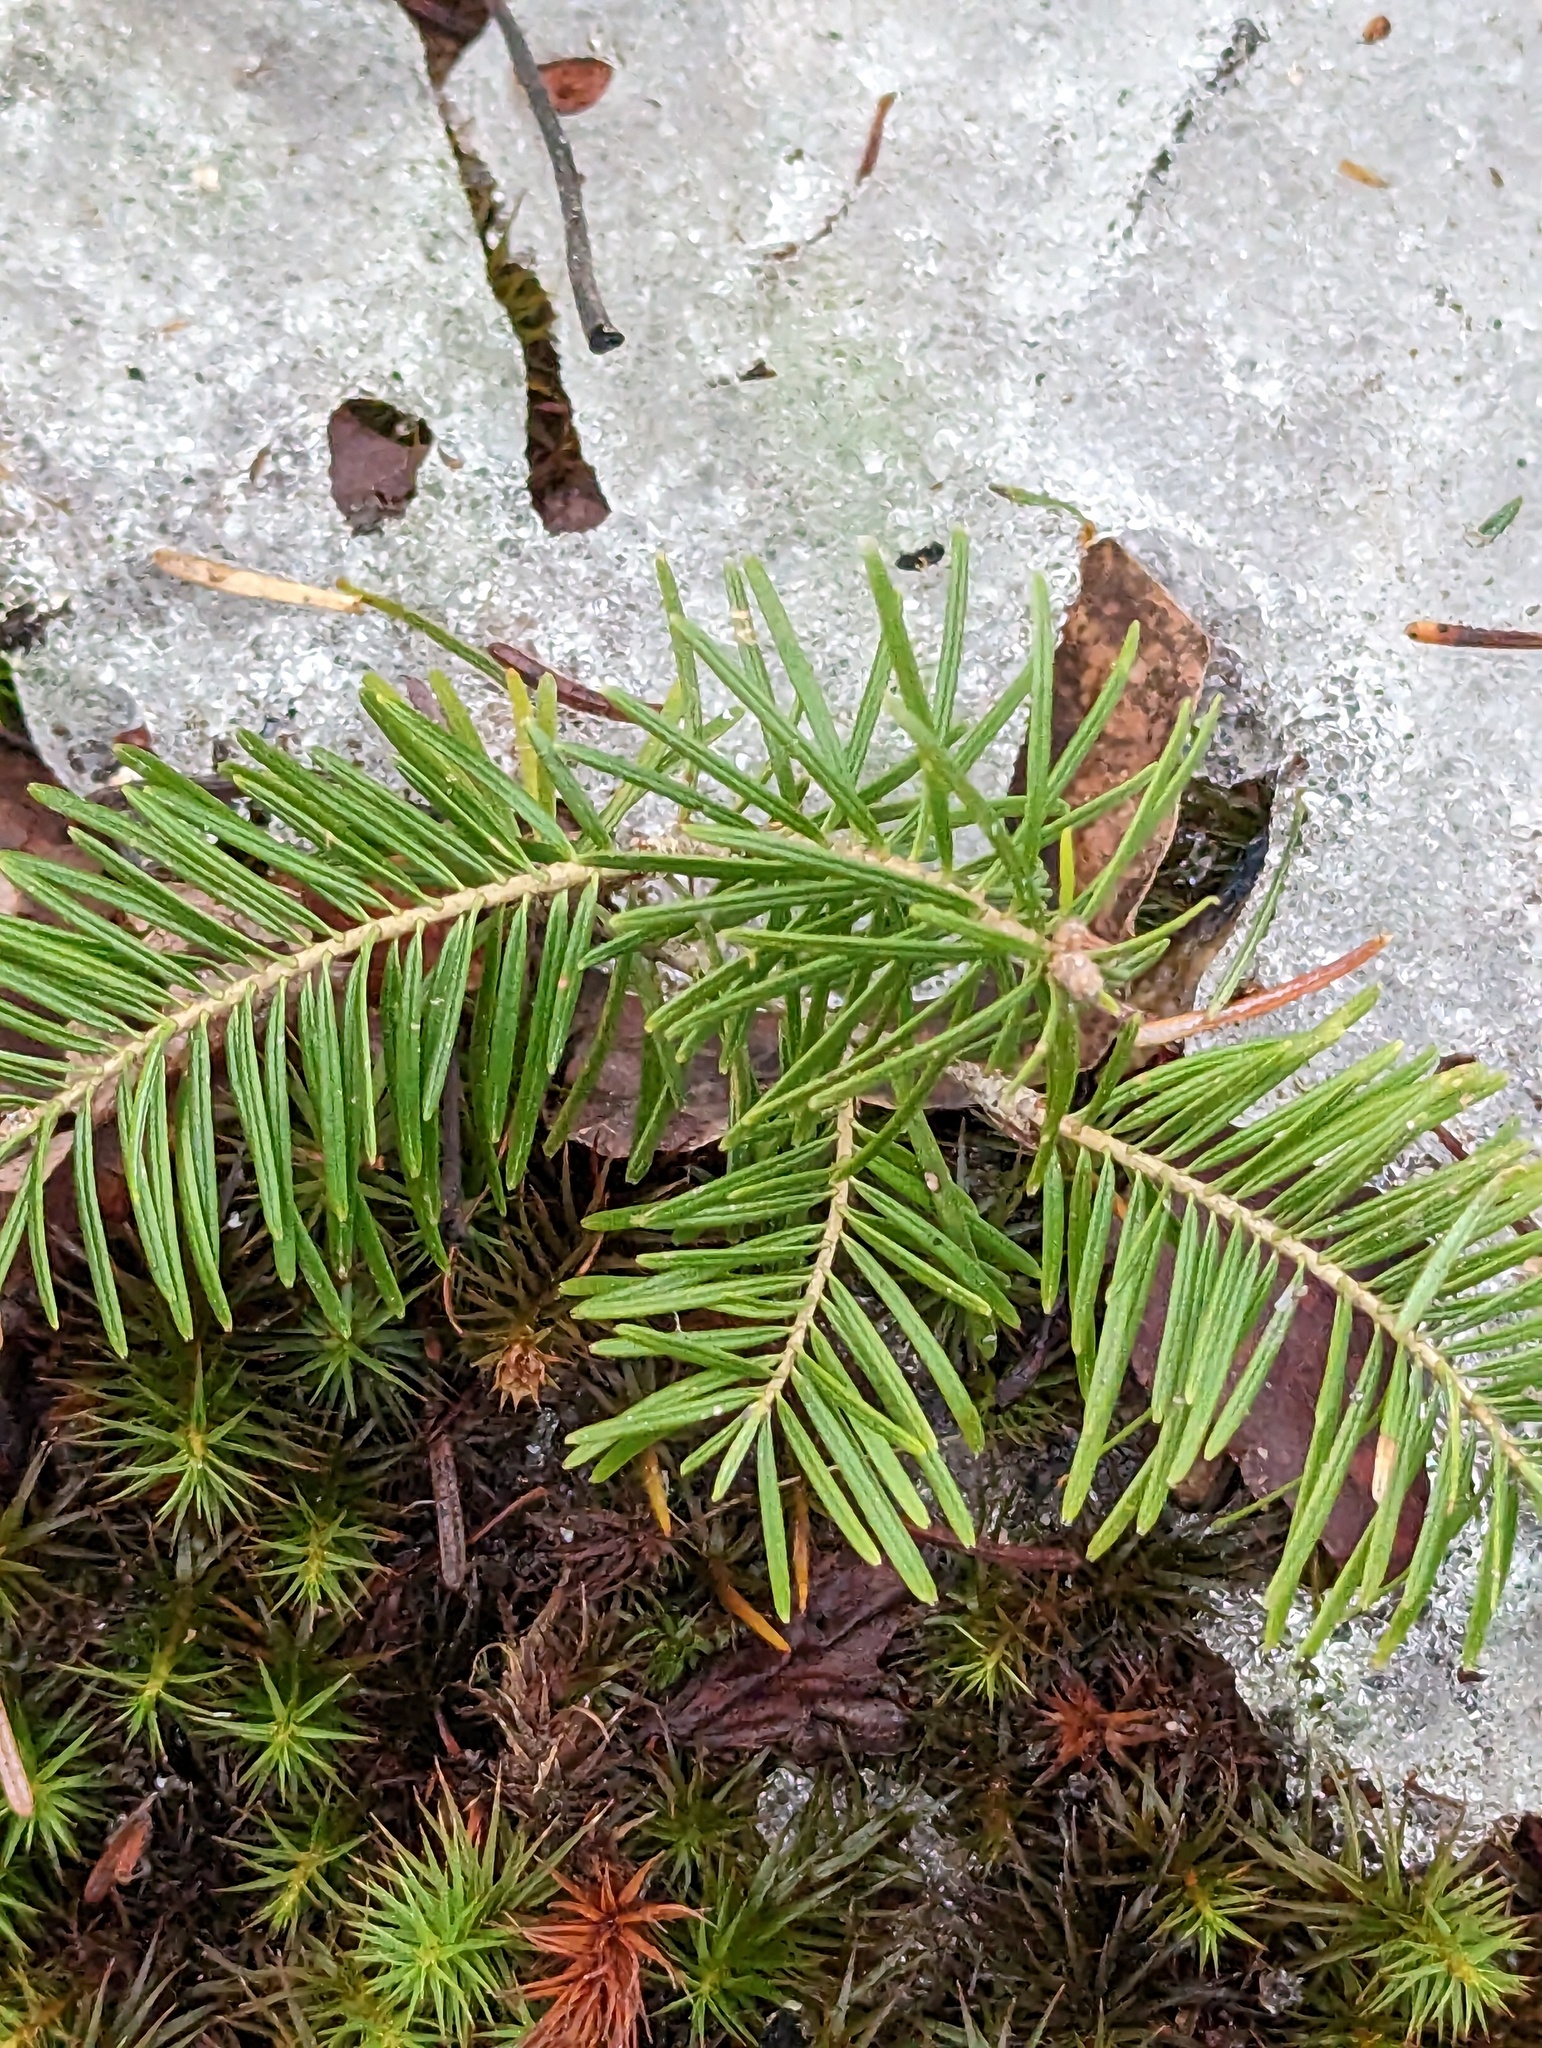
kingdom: Plantae
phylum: Tracheophyta
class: Pinopsida
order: Pinales
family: Pinaceae
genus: Abies
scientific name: Abies balsamea
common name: Balsam fir
